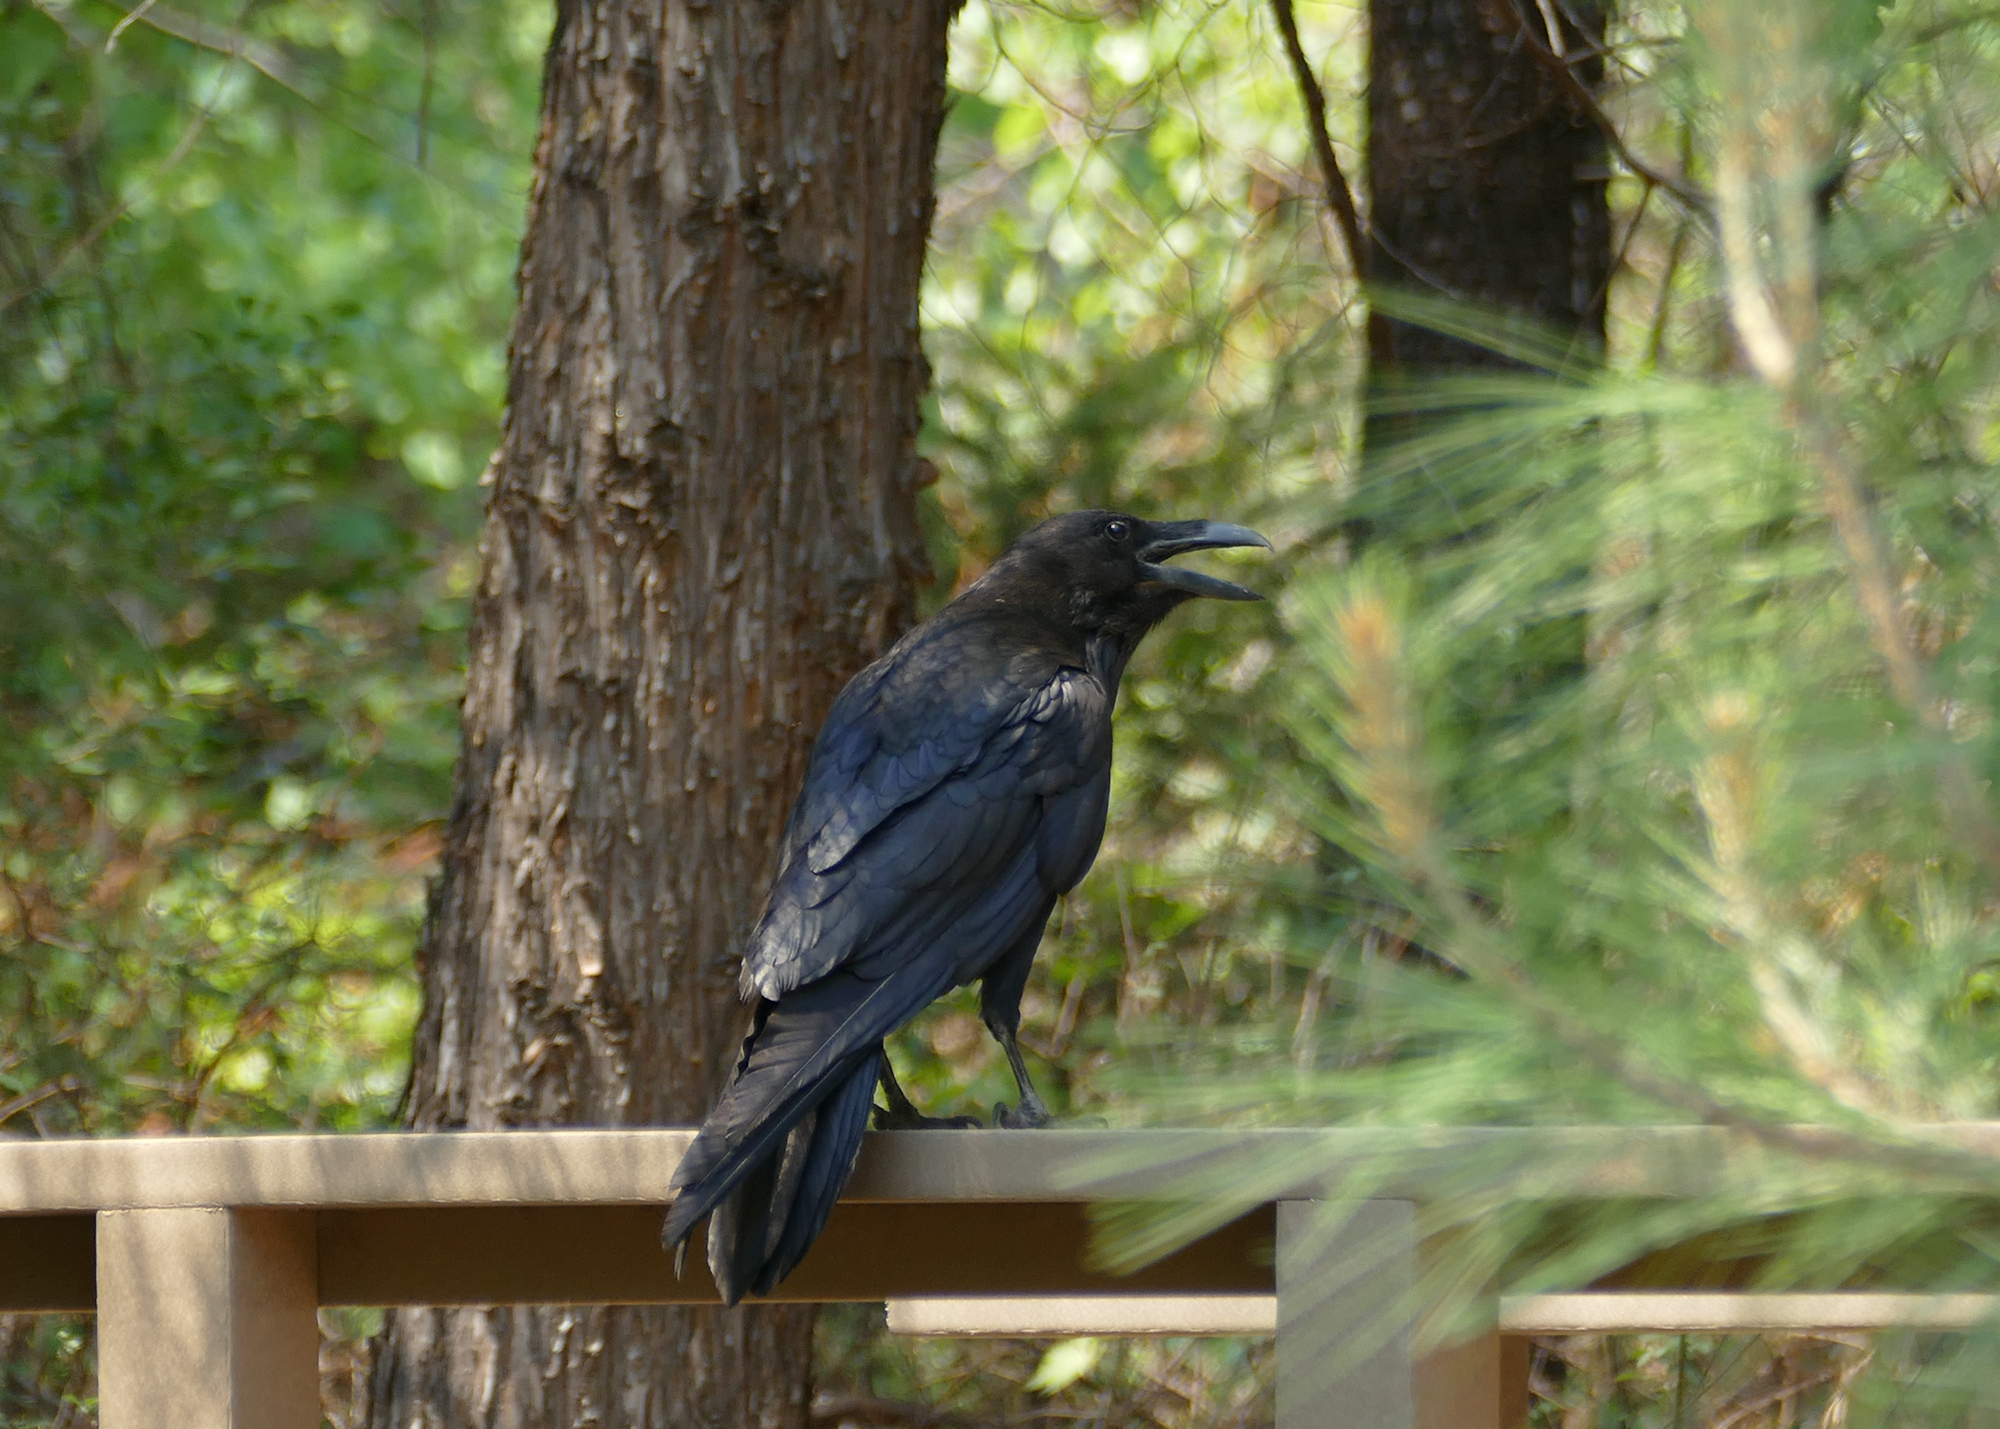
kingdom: Animalia
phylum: Chordata
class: Aves
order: Passeriformes
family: Corvidae
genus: Corvus
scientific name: Corvus corax
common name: Common raven
